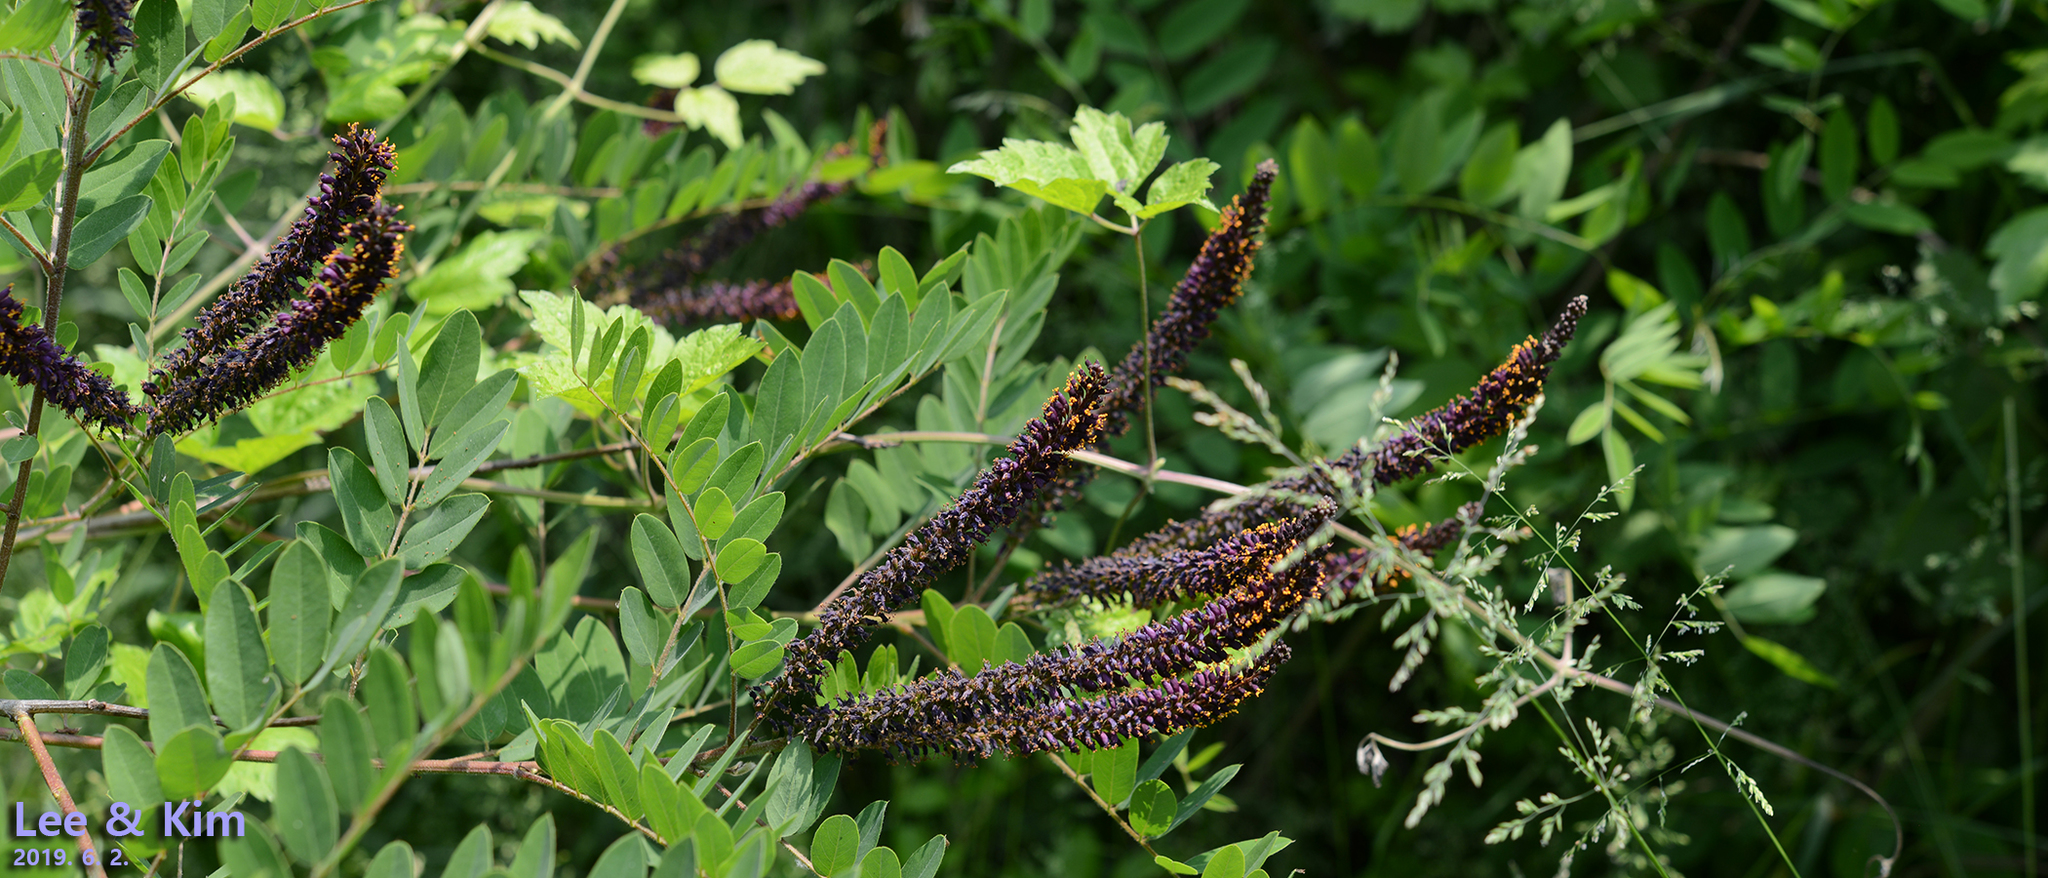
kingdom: Plantae
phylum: Tracheophyta
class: Magnoliopsida
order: Fabales
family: Fabaceae
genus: Amorpha
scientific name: Amorpha fruticosa
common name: False indigo
